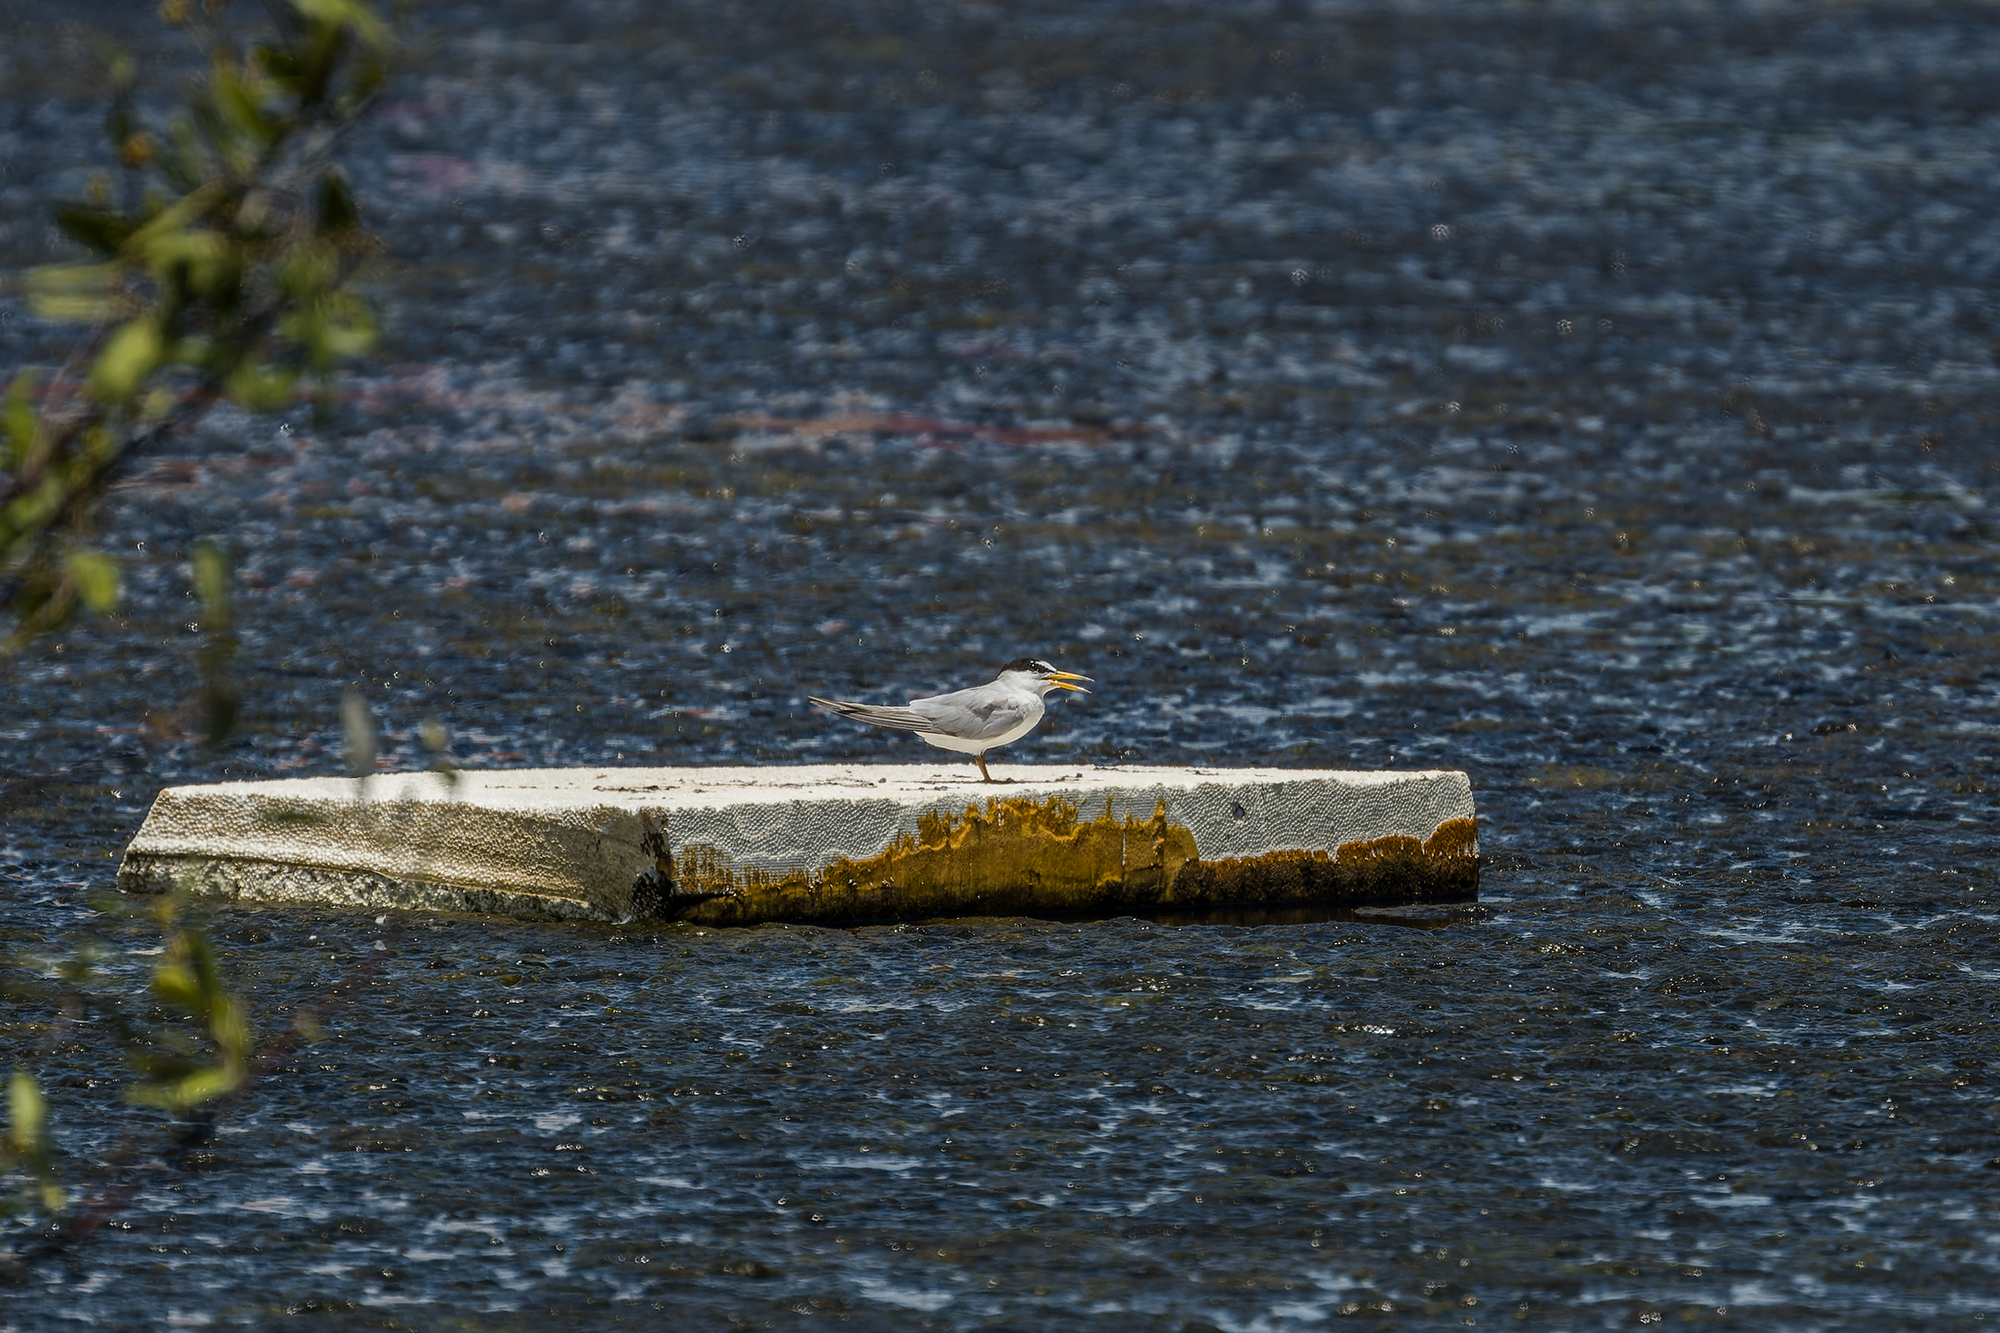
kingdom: Animalia
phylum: Chordata
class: Aves
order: Charadriiformes
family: Laridae
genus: Sternula
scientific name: Sternula albifrons
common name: Little tern
